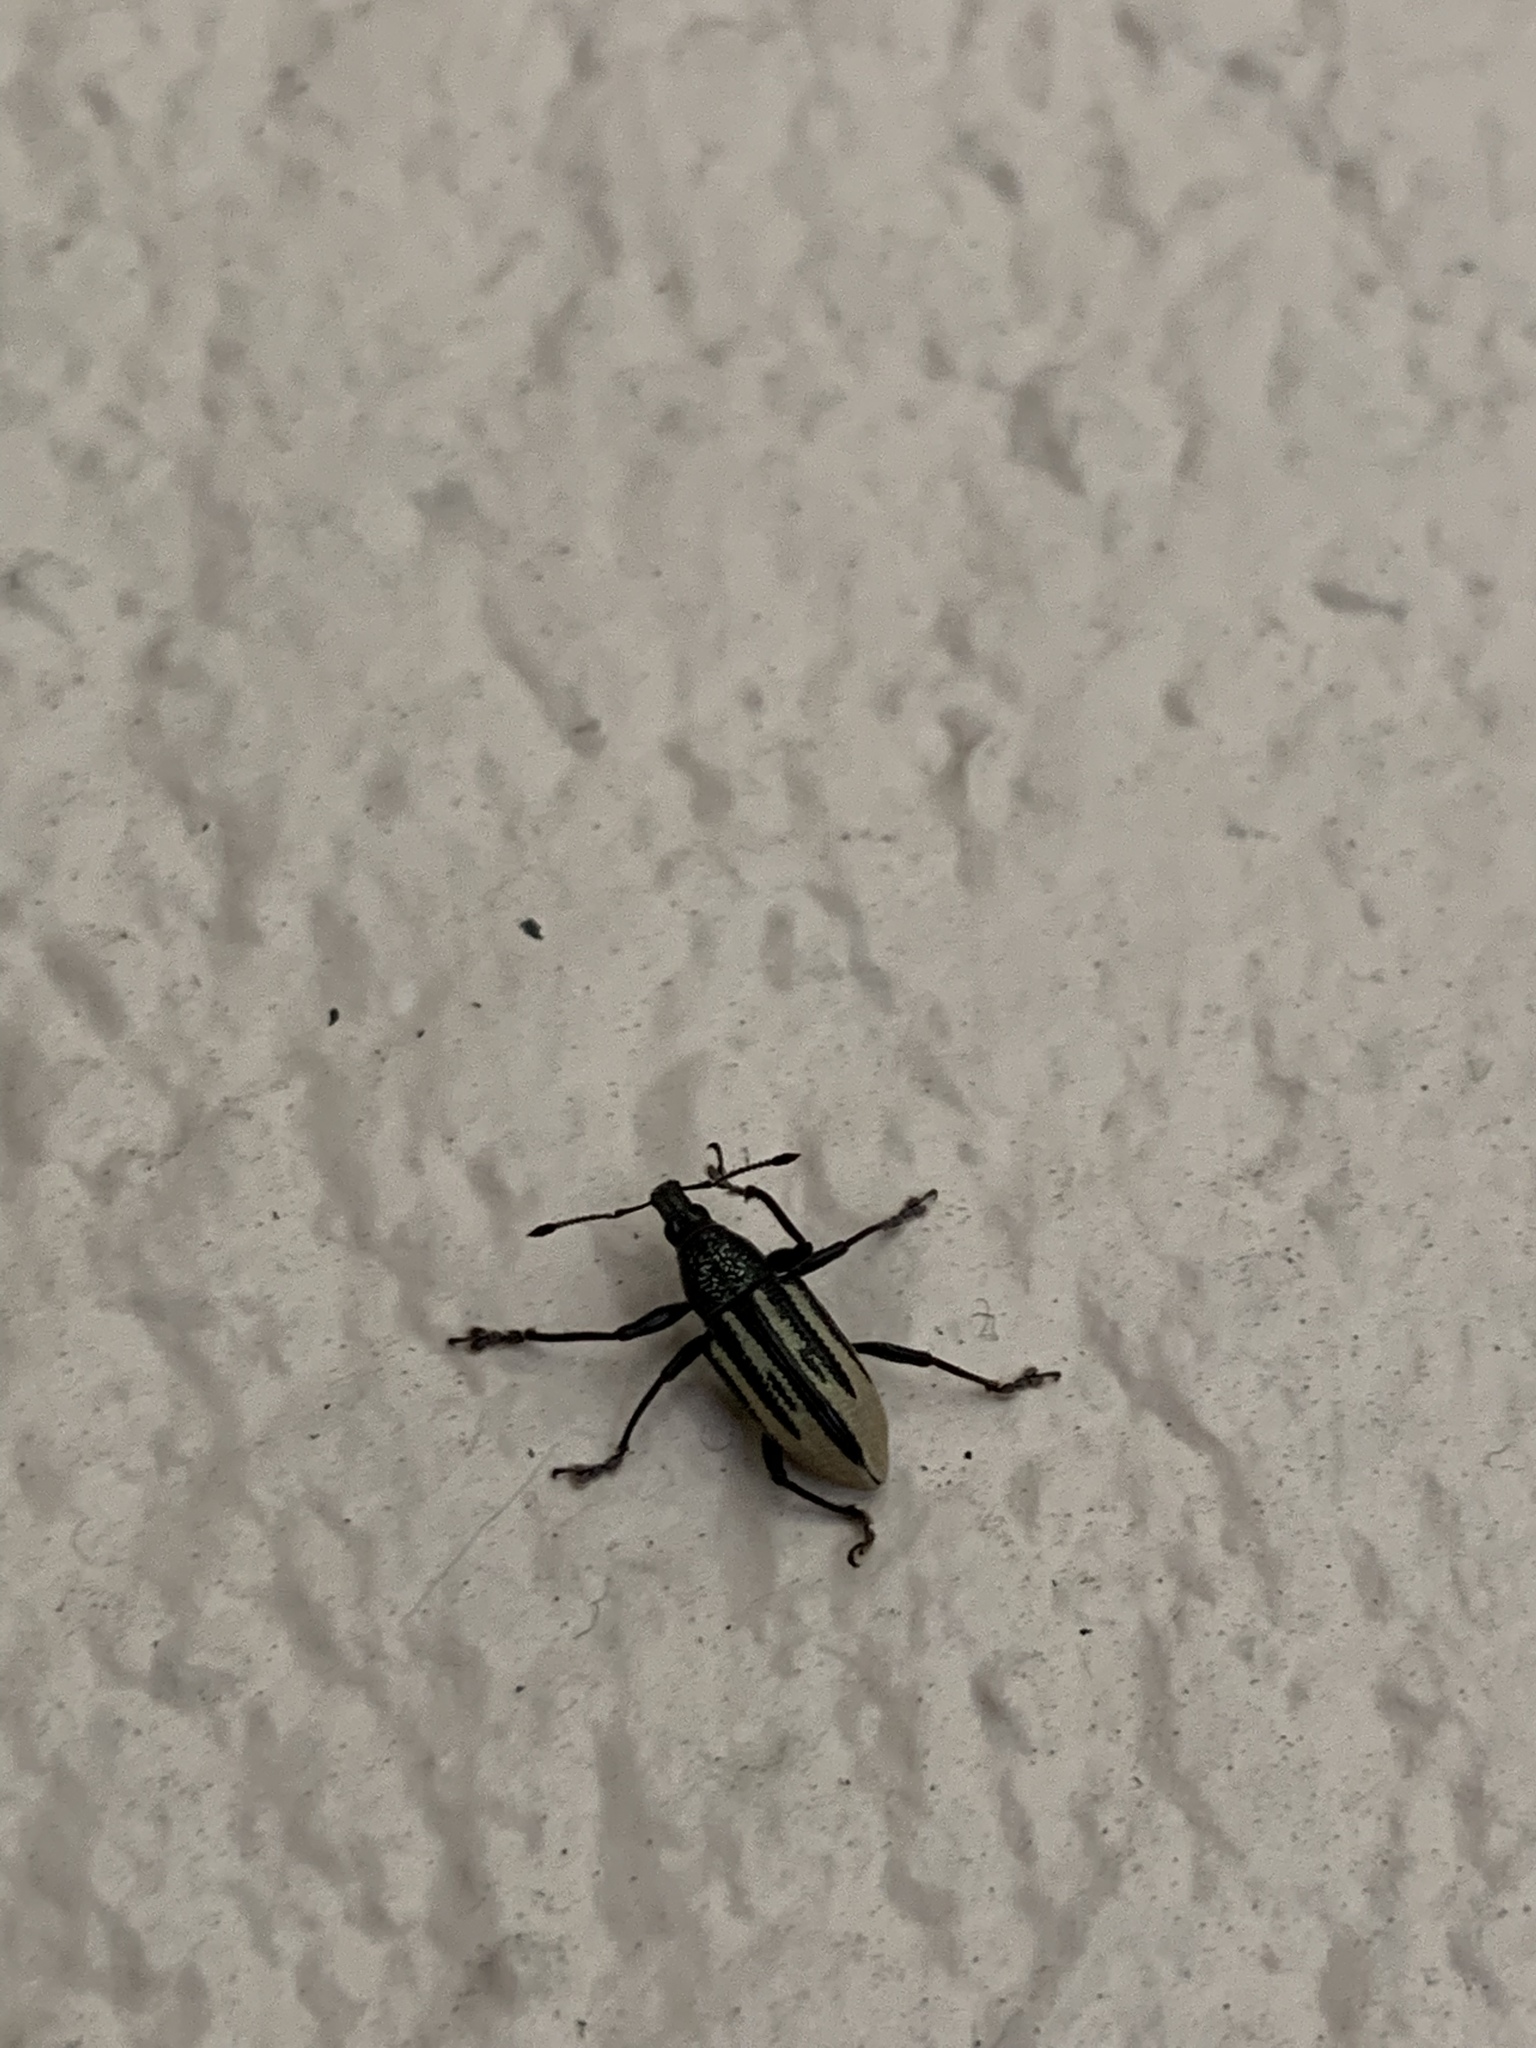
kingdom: Animalia
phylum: Arthropoda
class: Insecta
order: Coleoptera
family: Curculionidae
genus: Diaprepes
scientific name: Diaprepes abbreviatus
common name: Root weevil
